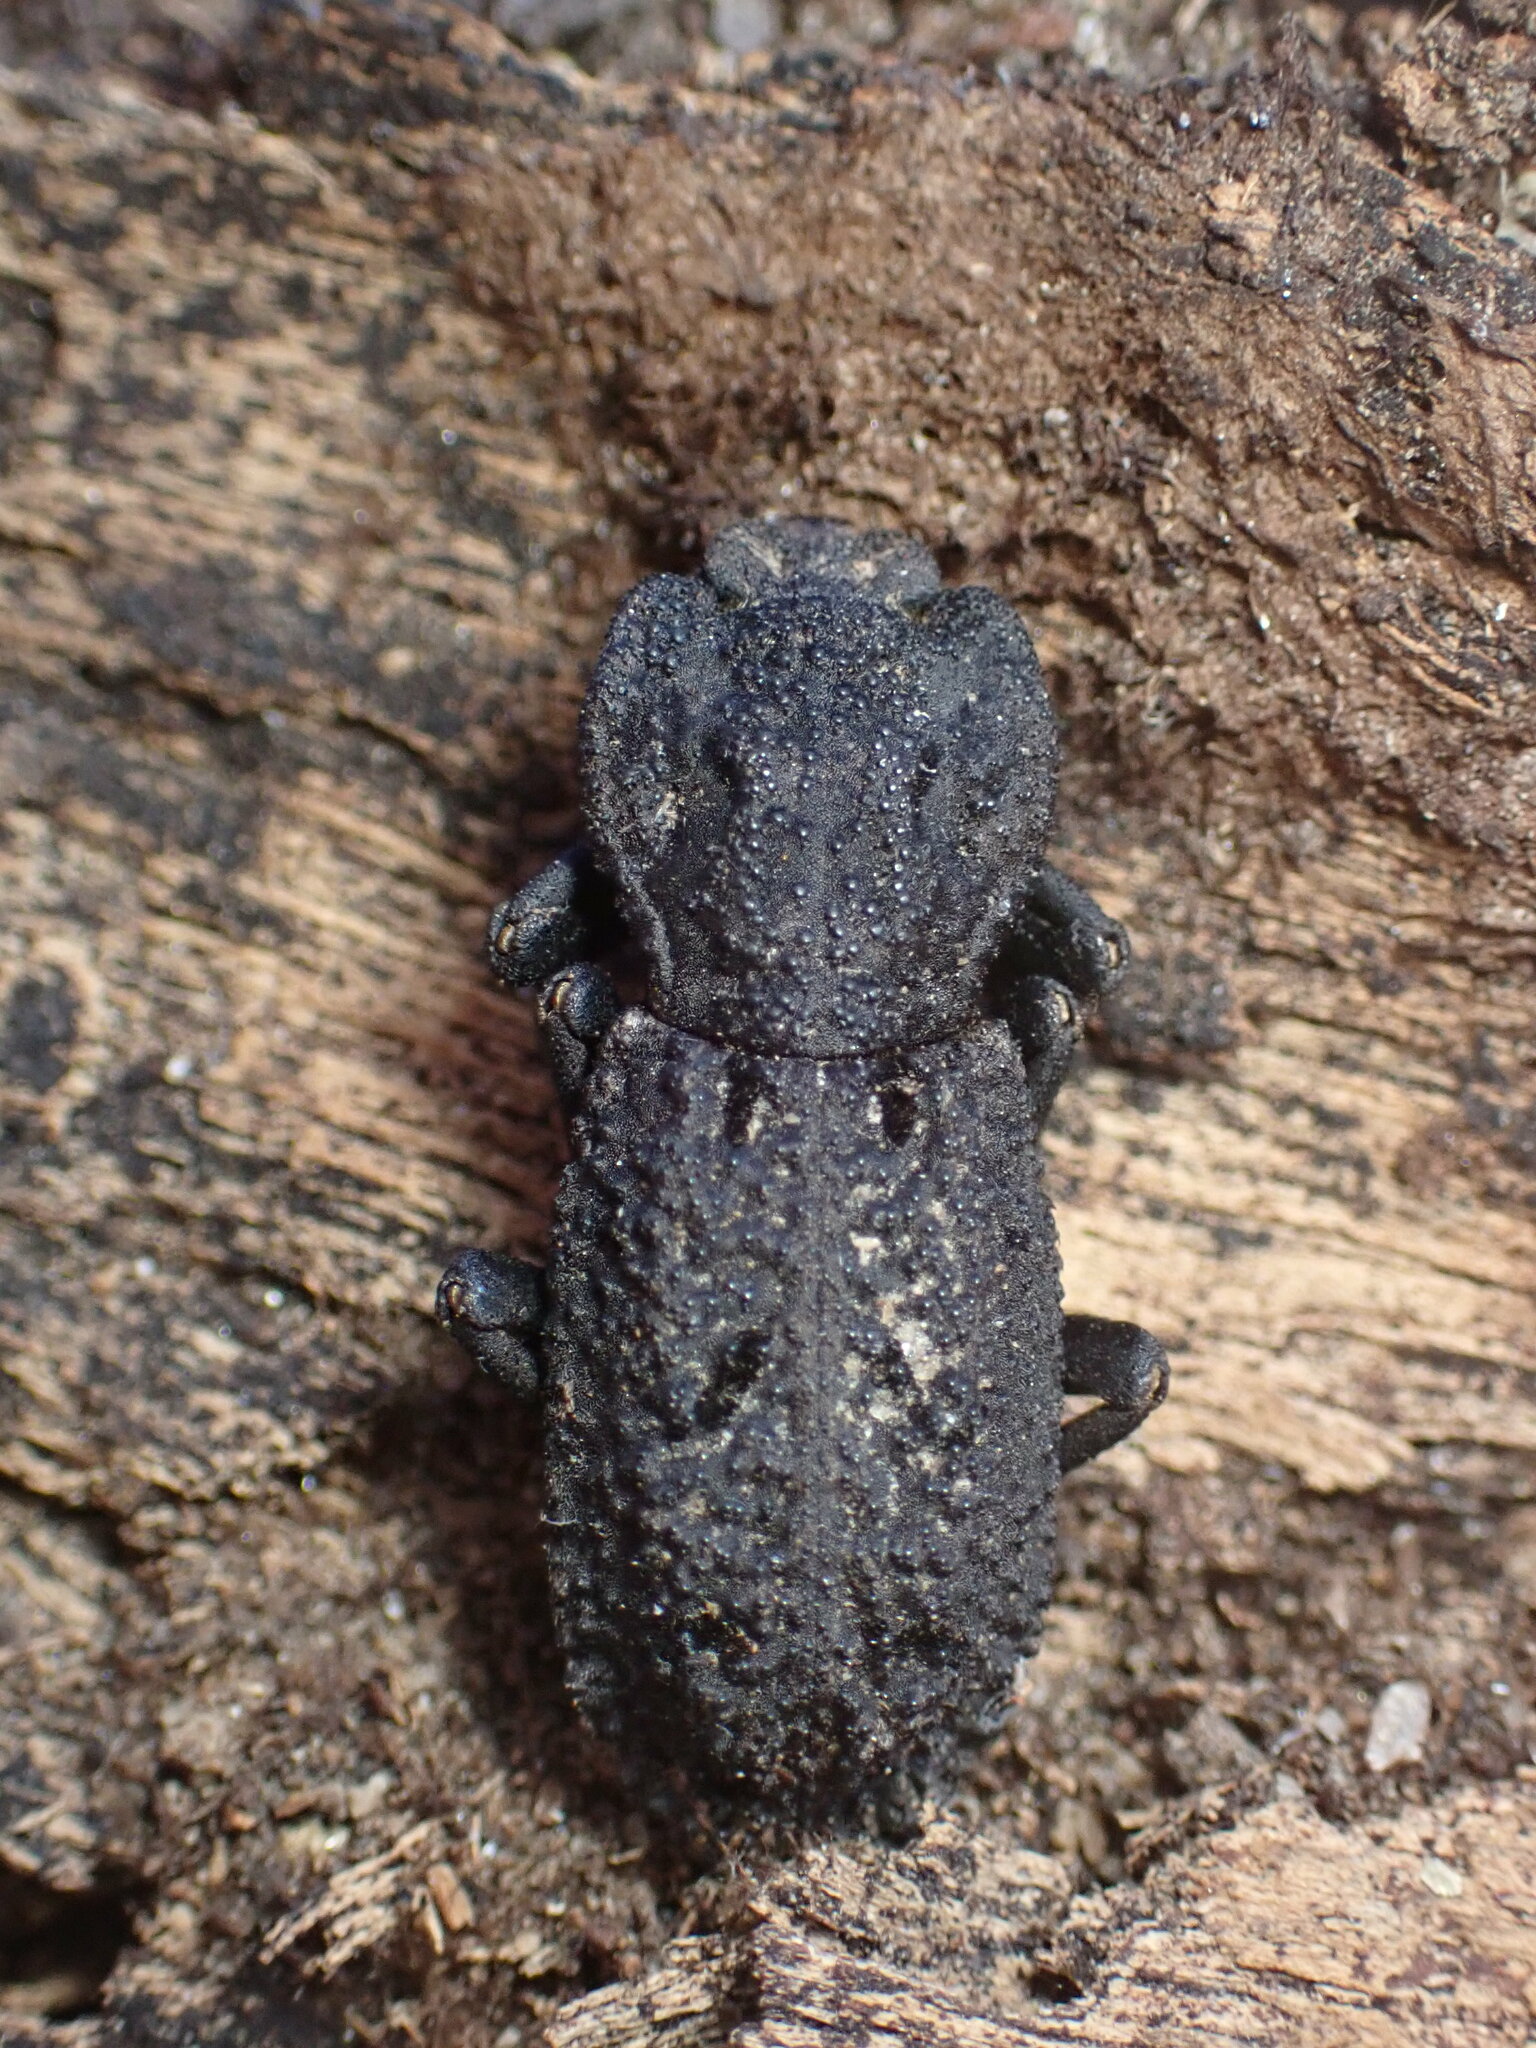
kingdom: Animalia
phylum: Arthropoda
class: Insecta
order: Coleoptera
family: Zopheridae
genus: Phloeodes
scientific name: Phloeodes diabolicus
